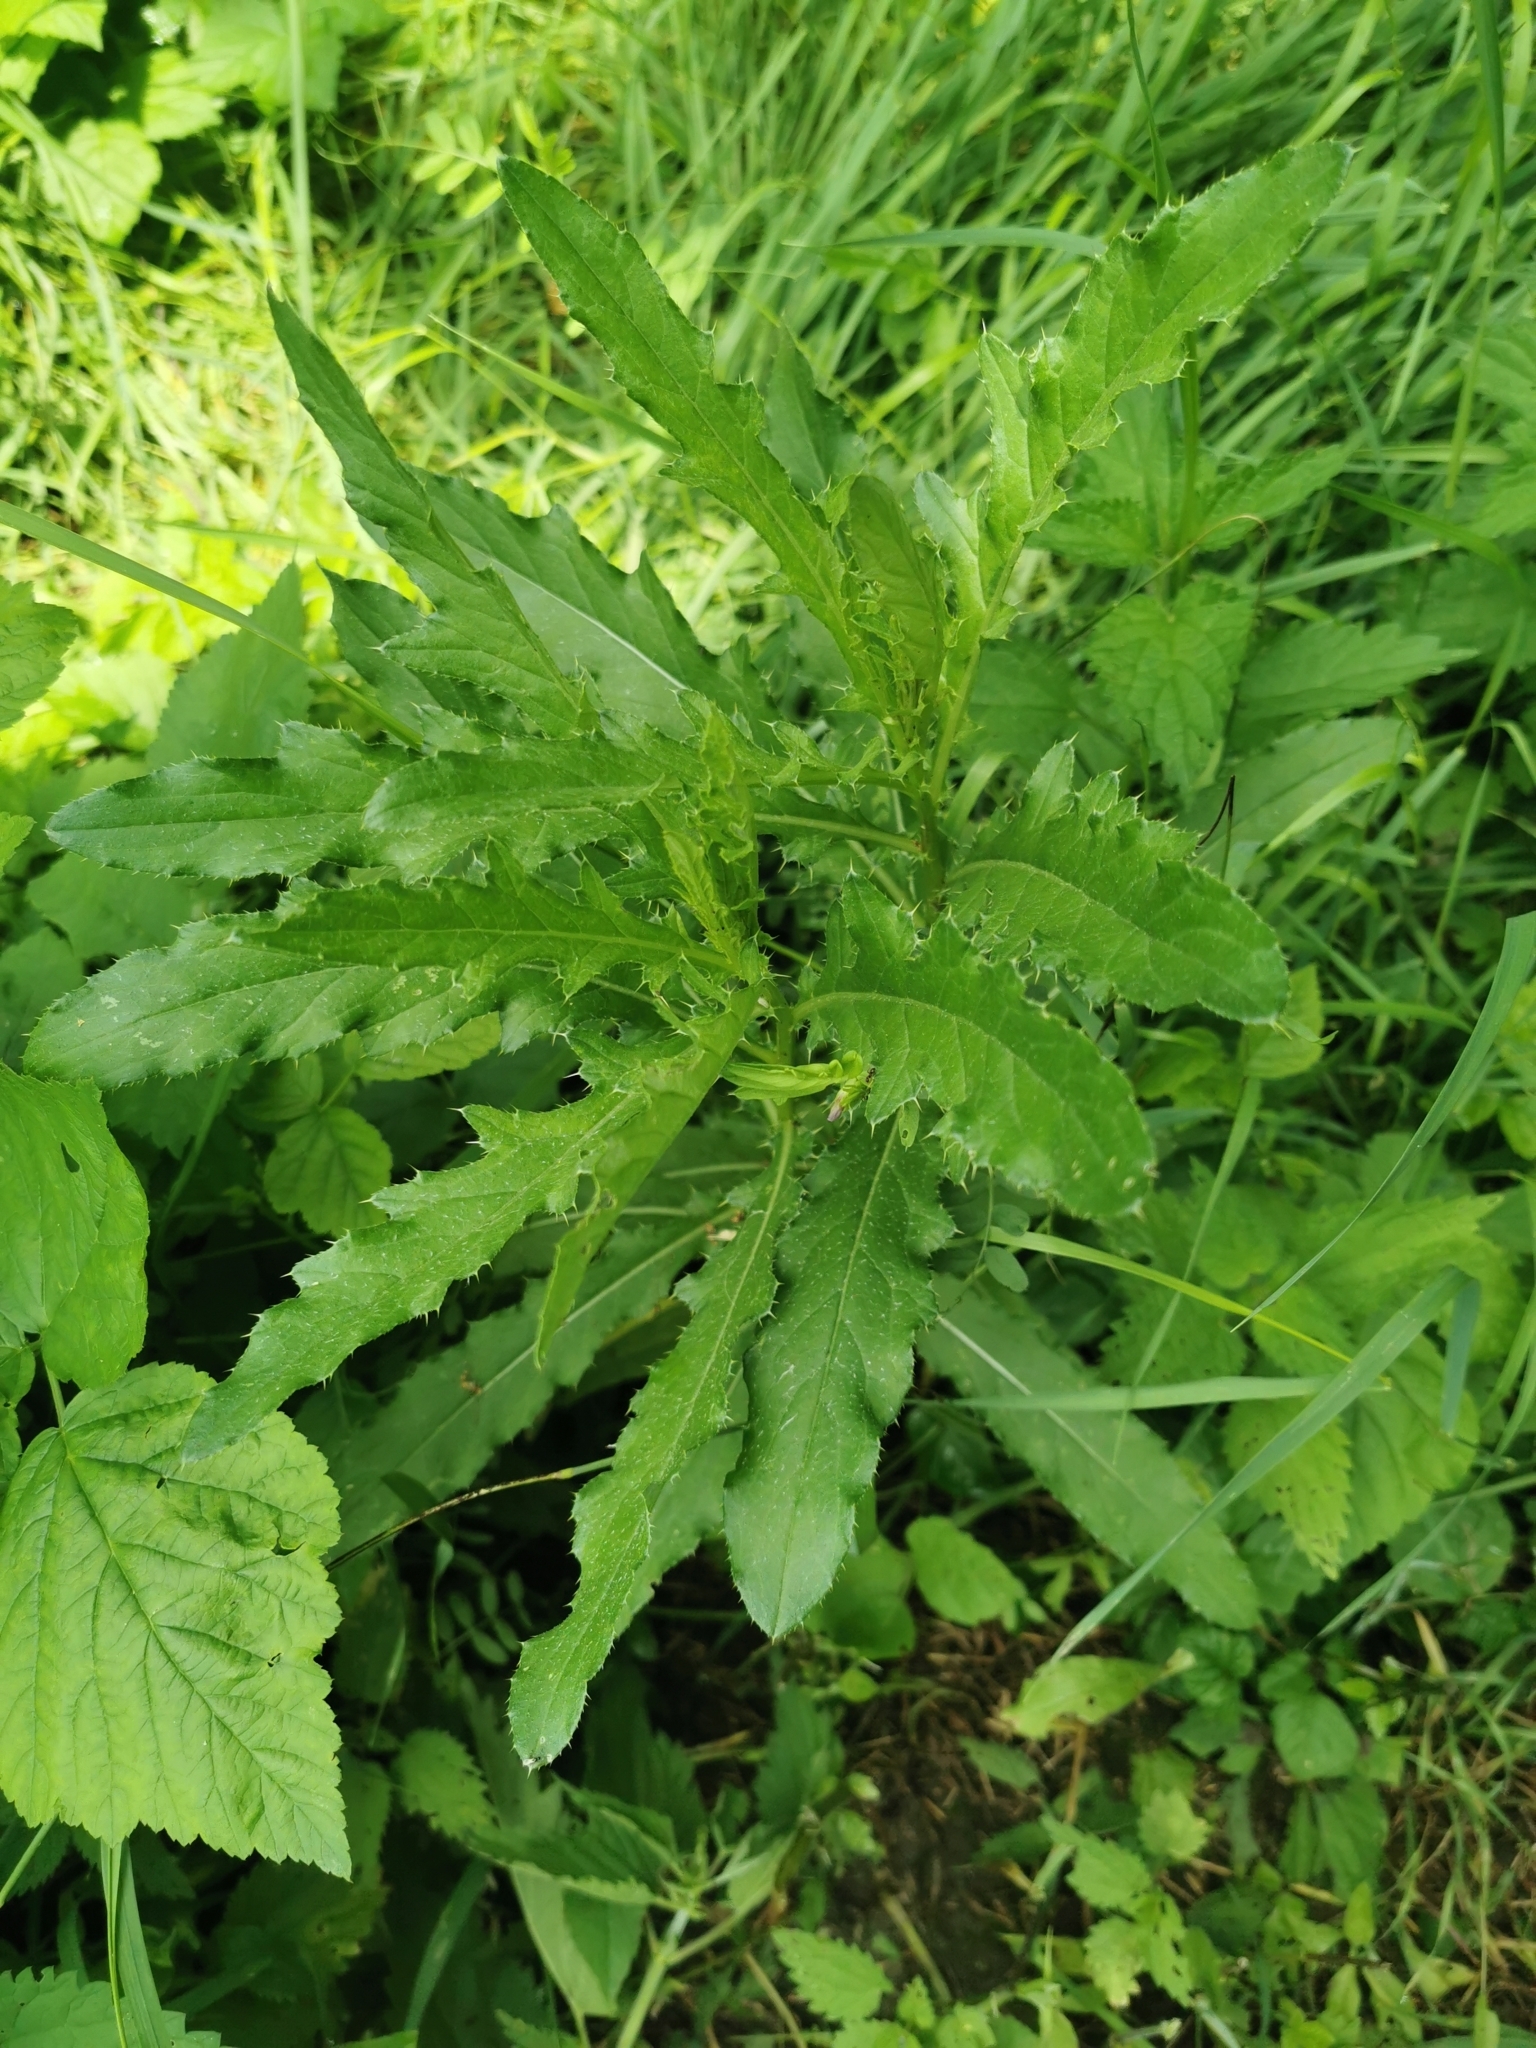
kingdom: Plantae
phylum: Tracheophyta
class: Magnoliopsida
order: Asterales
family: Asteraceae
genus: Cirsium
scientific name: Cirsium arvense
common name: Creeping thistle
